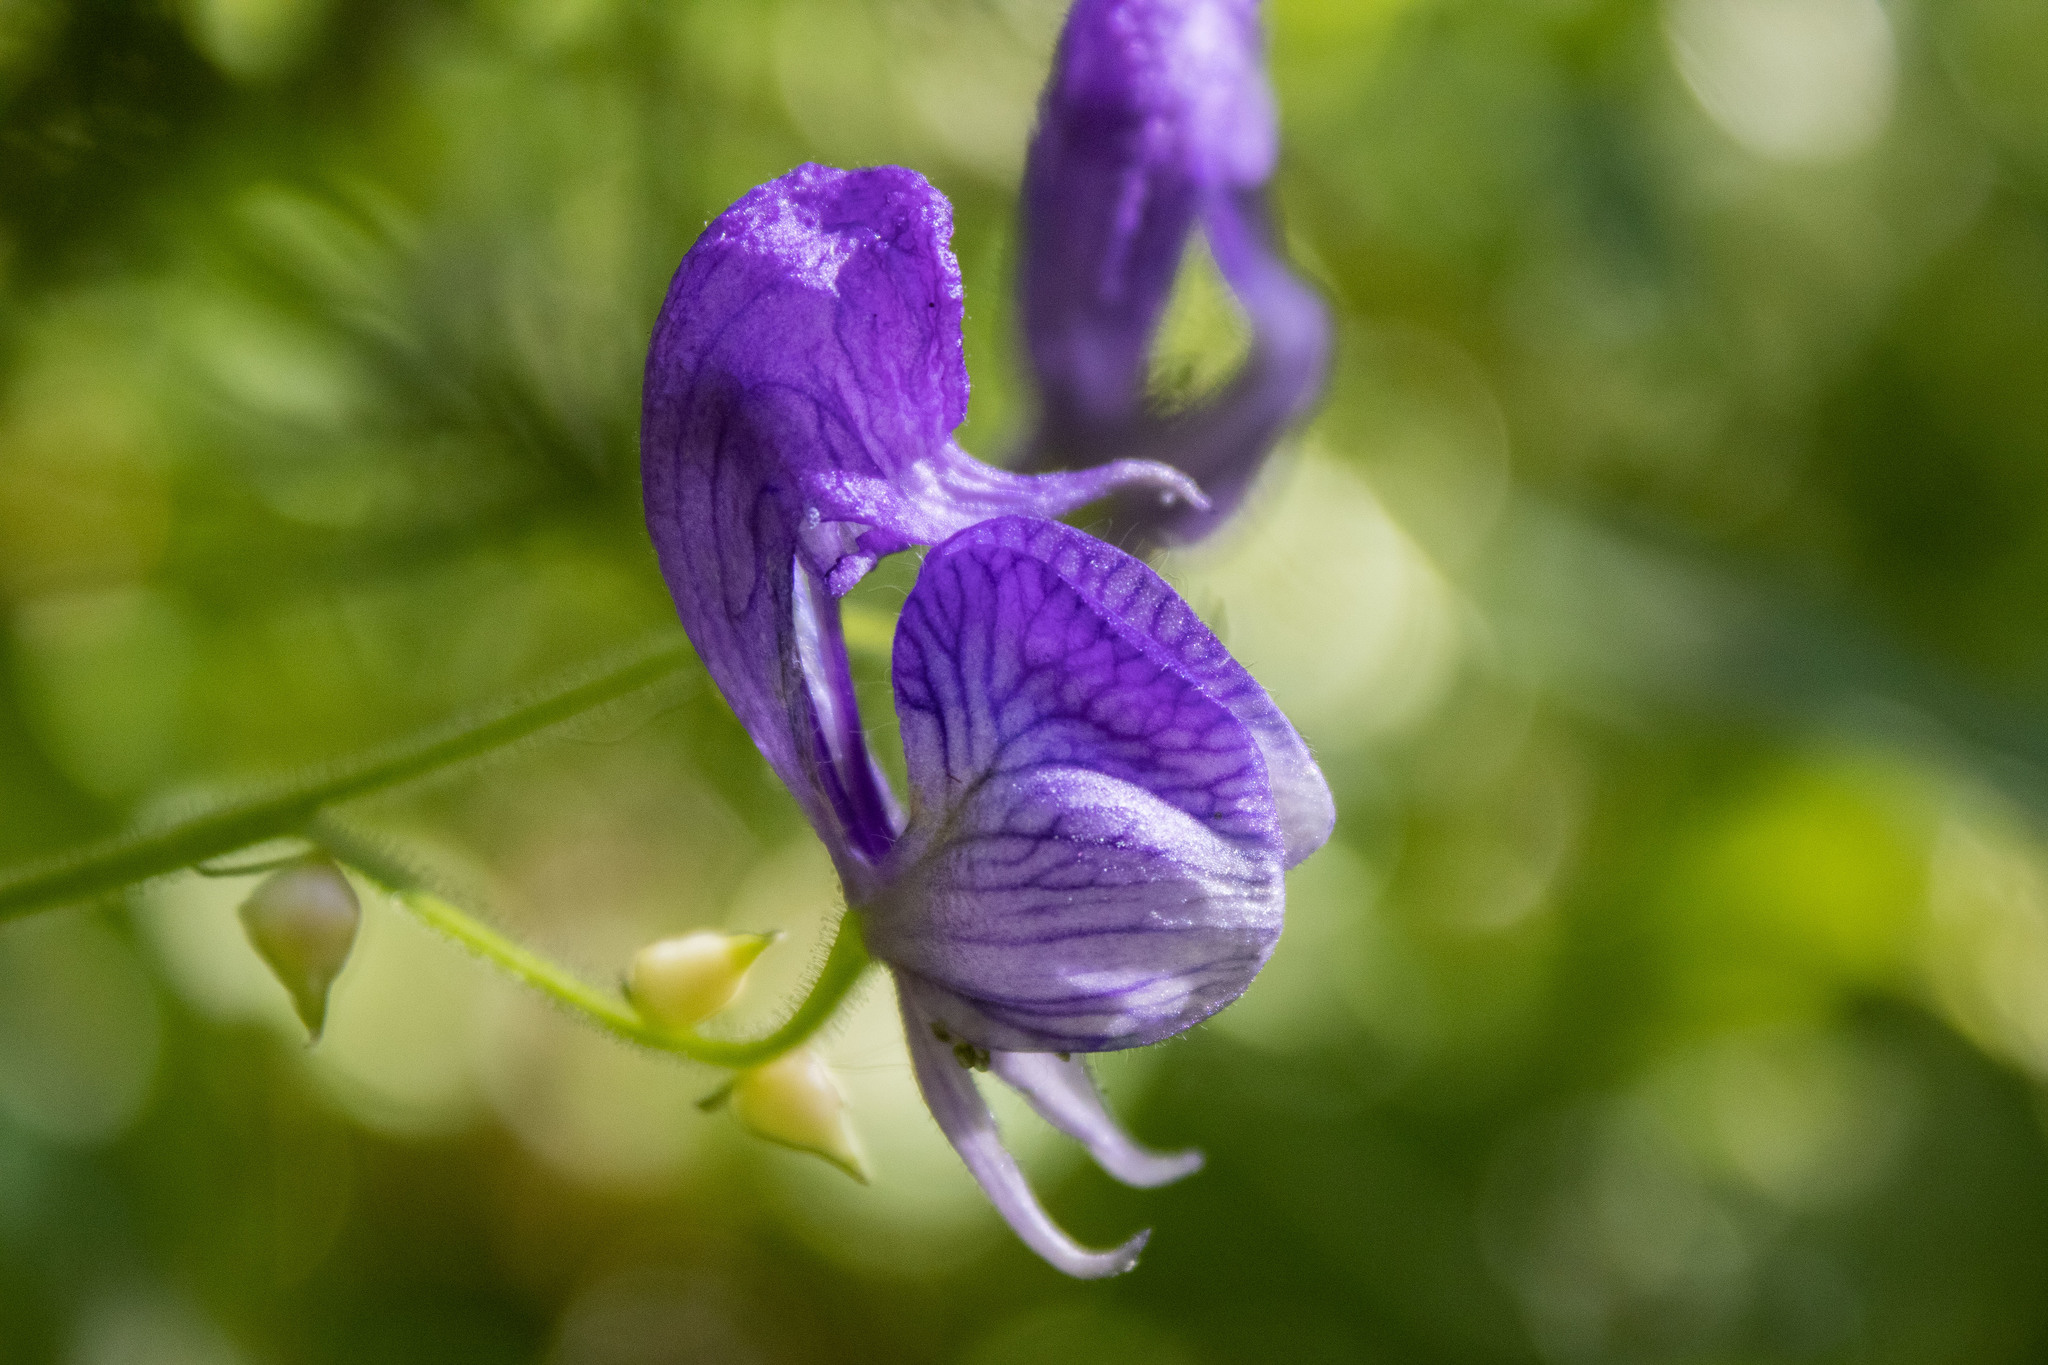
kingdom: Plantae
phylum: Tracheophyta
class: Magnoliopsida
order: Ranunculales
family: Ranunculaceae
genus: Aconitum
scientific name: Aconitum columbianum
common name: Columbia aconite
